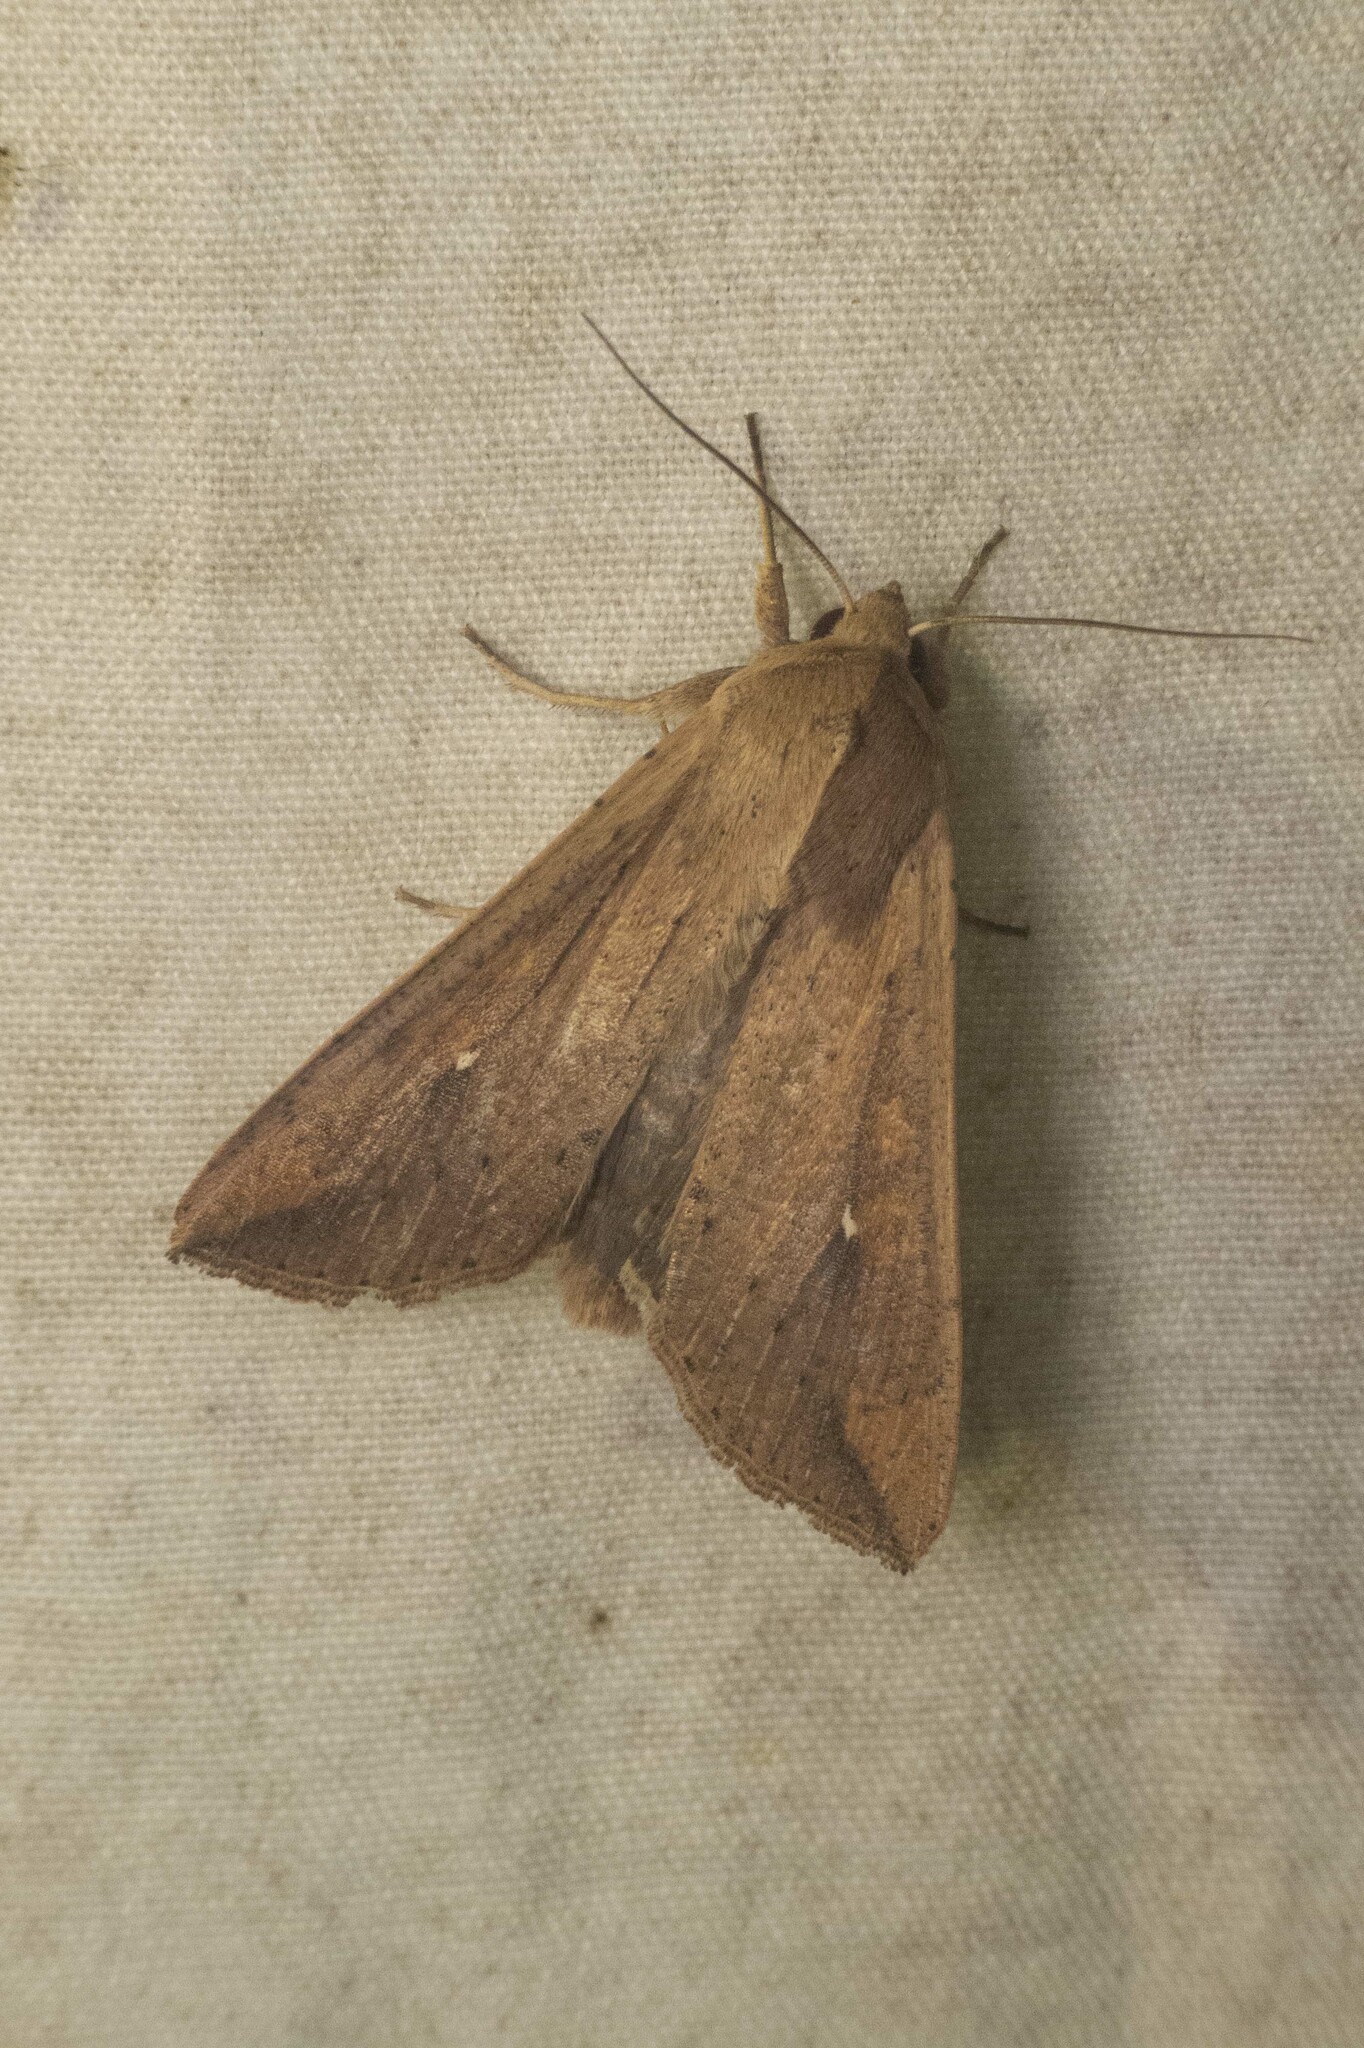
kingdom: Animalia
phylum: Arthropoda
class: Insecta
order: Lepidoptera
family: Noctuidae
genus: Mythimna
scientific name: Mythimna unipuncta
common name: White-speck
